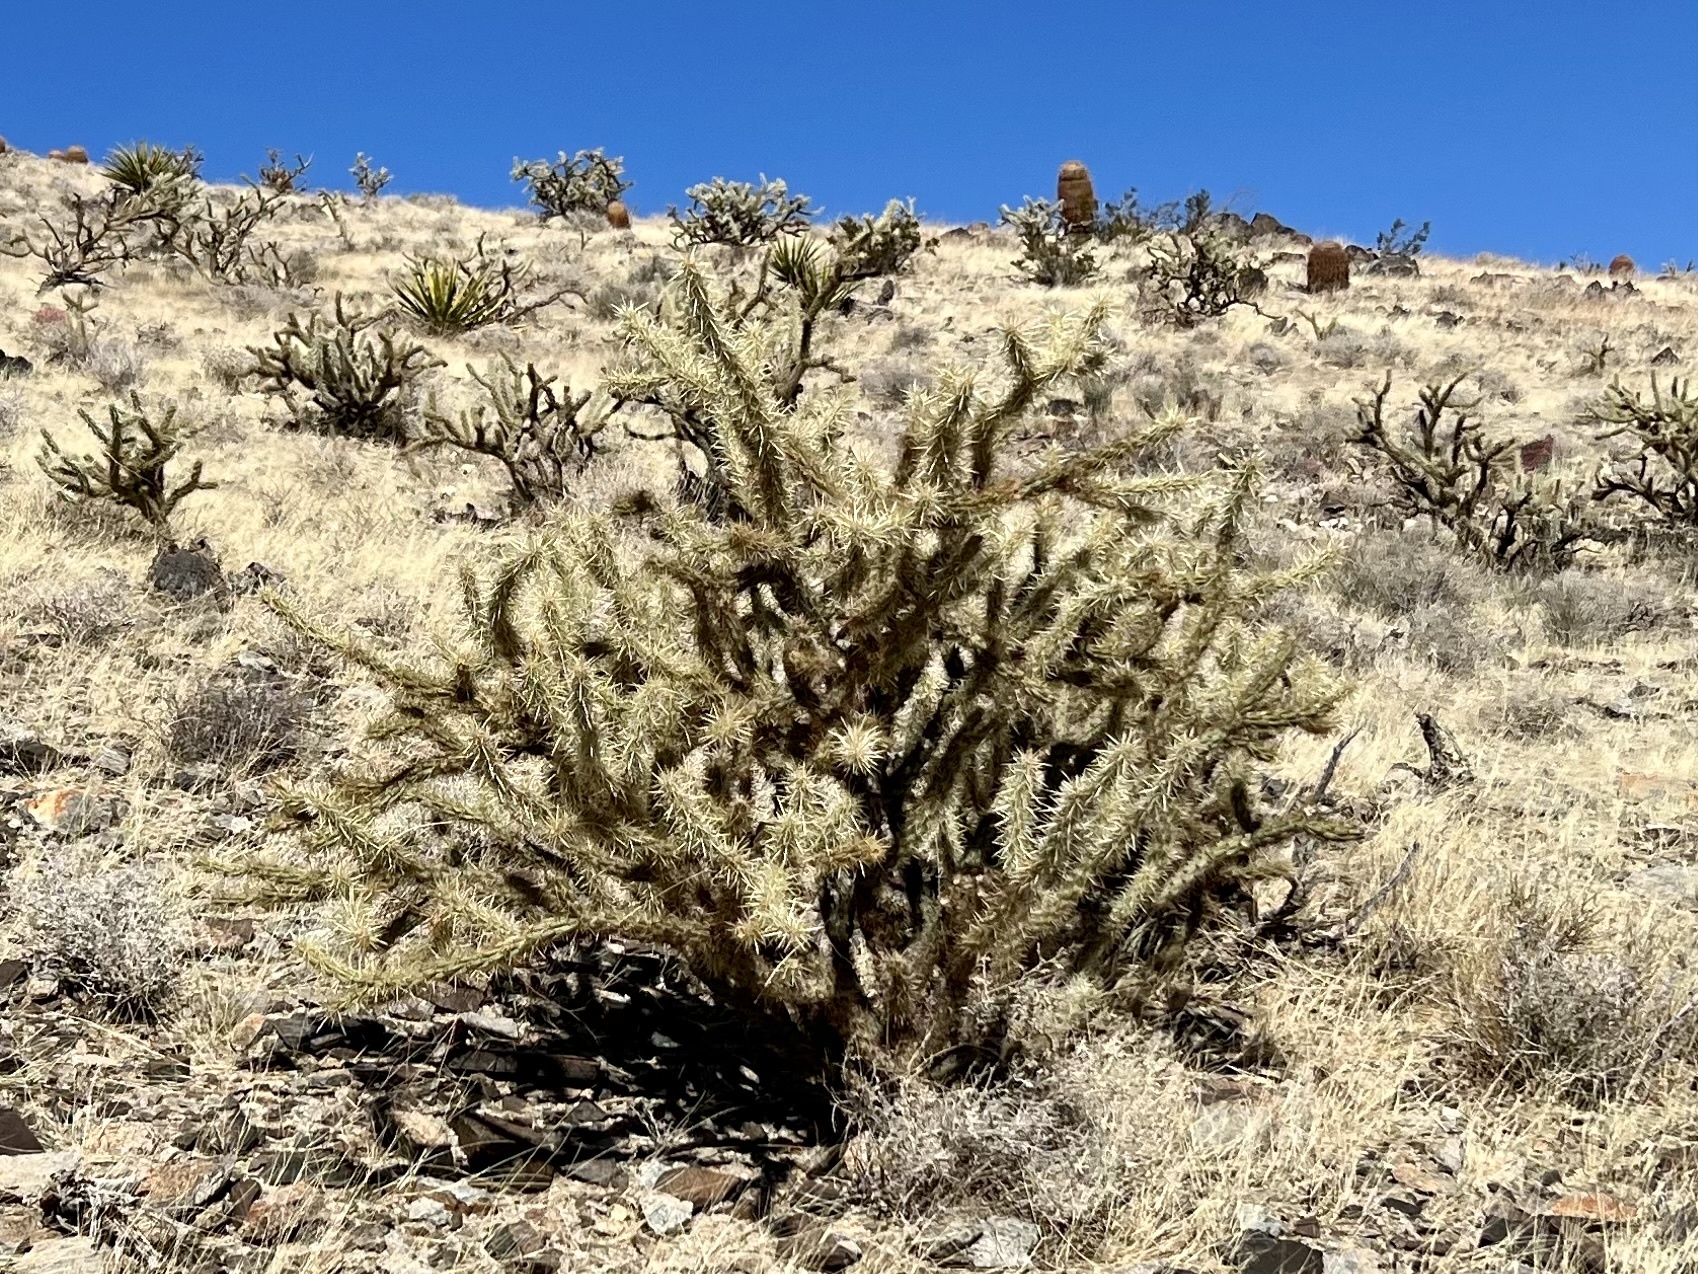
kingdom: Plantae
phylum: Tracheophyta
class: Magnoliopsida
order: Caryophyllales
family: Cactaceae
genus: Cylindropuntia
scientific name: Cylindropuntia acanthocarpa
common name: Buckhorn cholla
